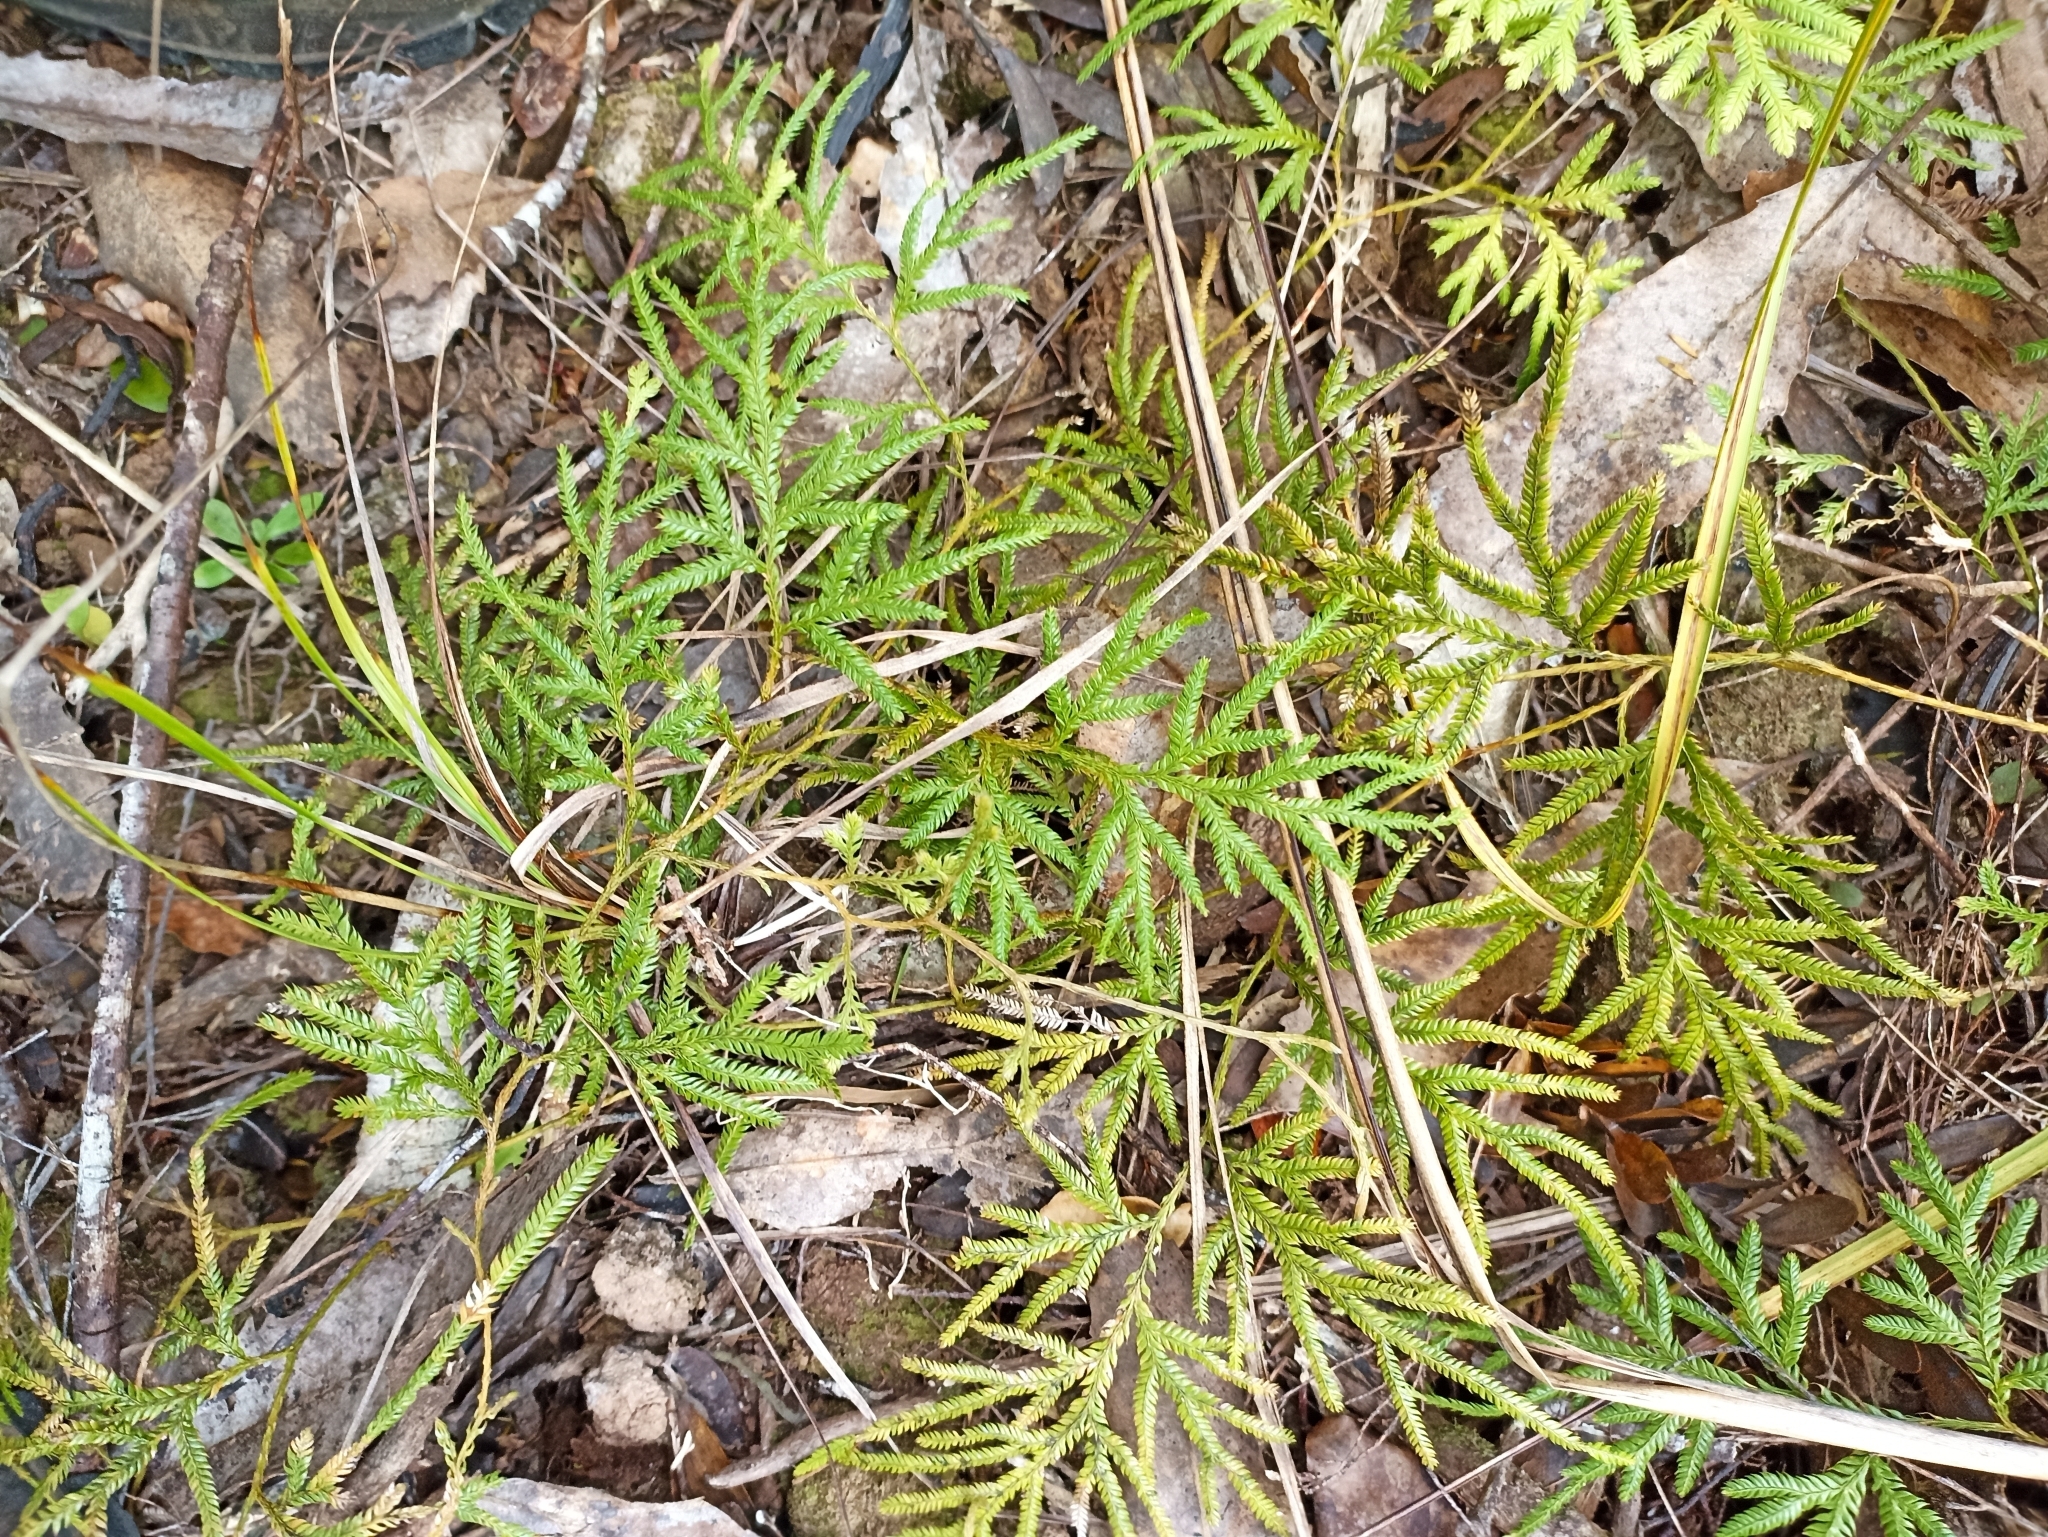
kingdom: Plantae
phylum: Tracheophyta
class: Lycopodiopsida
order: Lycopodiales
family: Lycopodiaceae
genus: Lycopodium
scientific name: Lycopodium volubile
